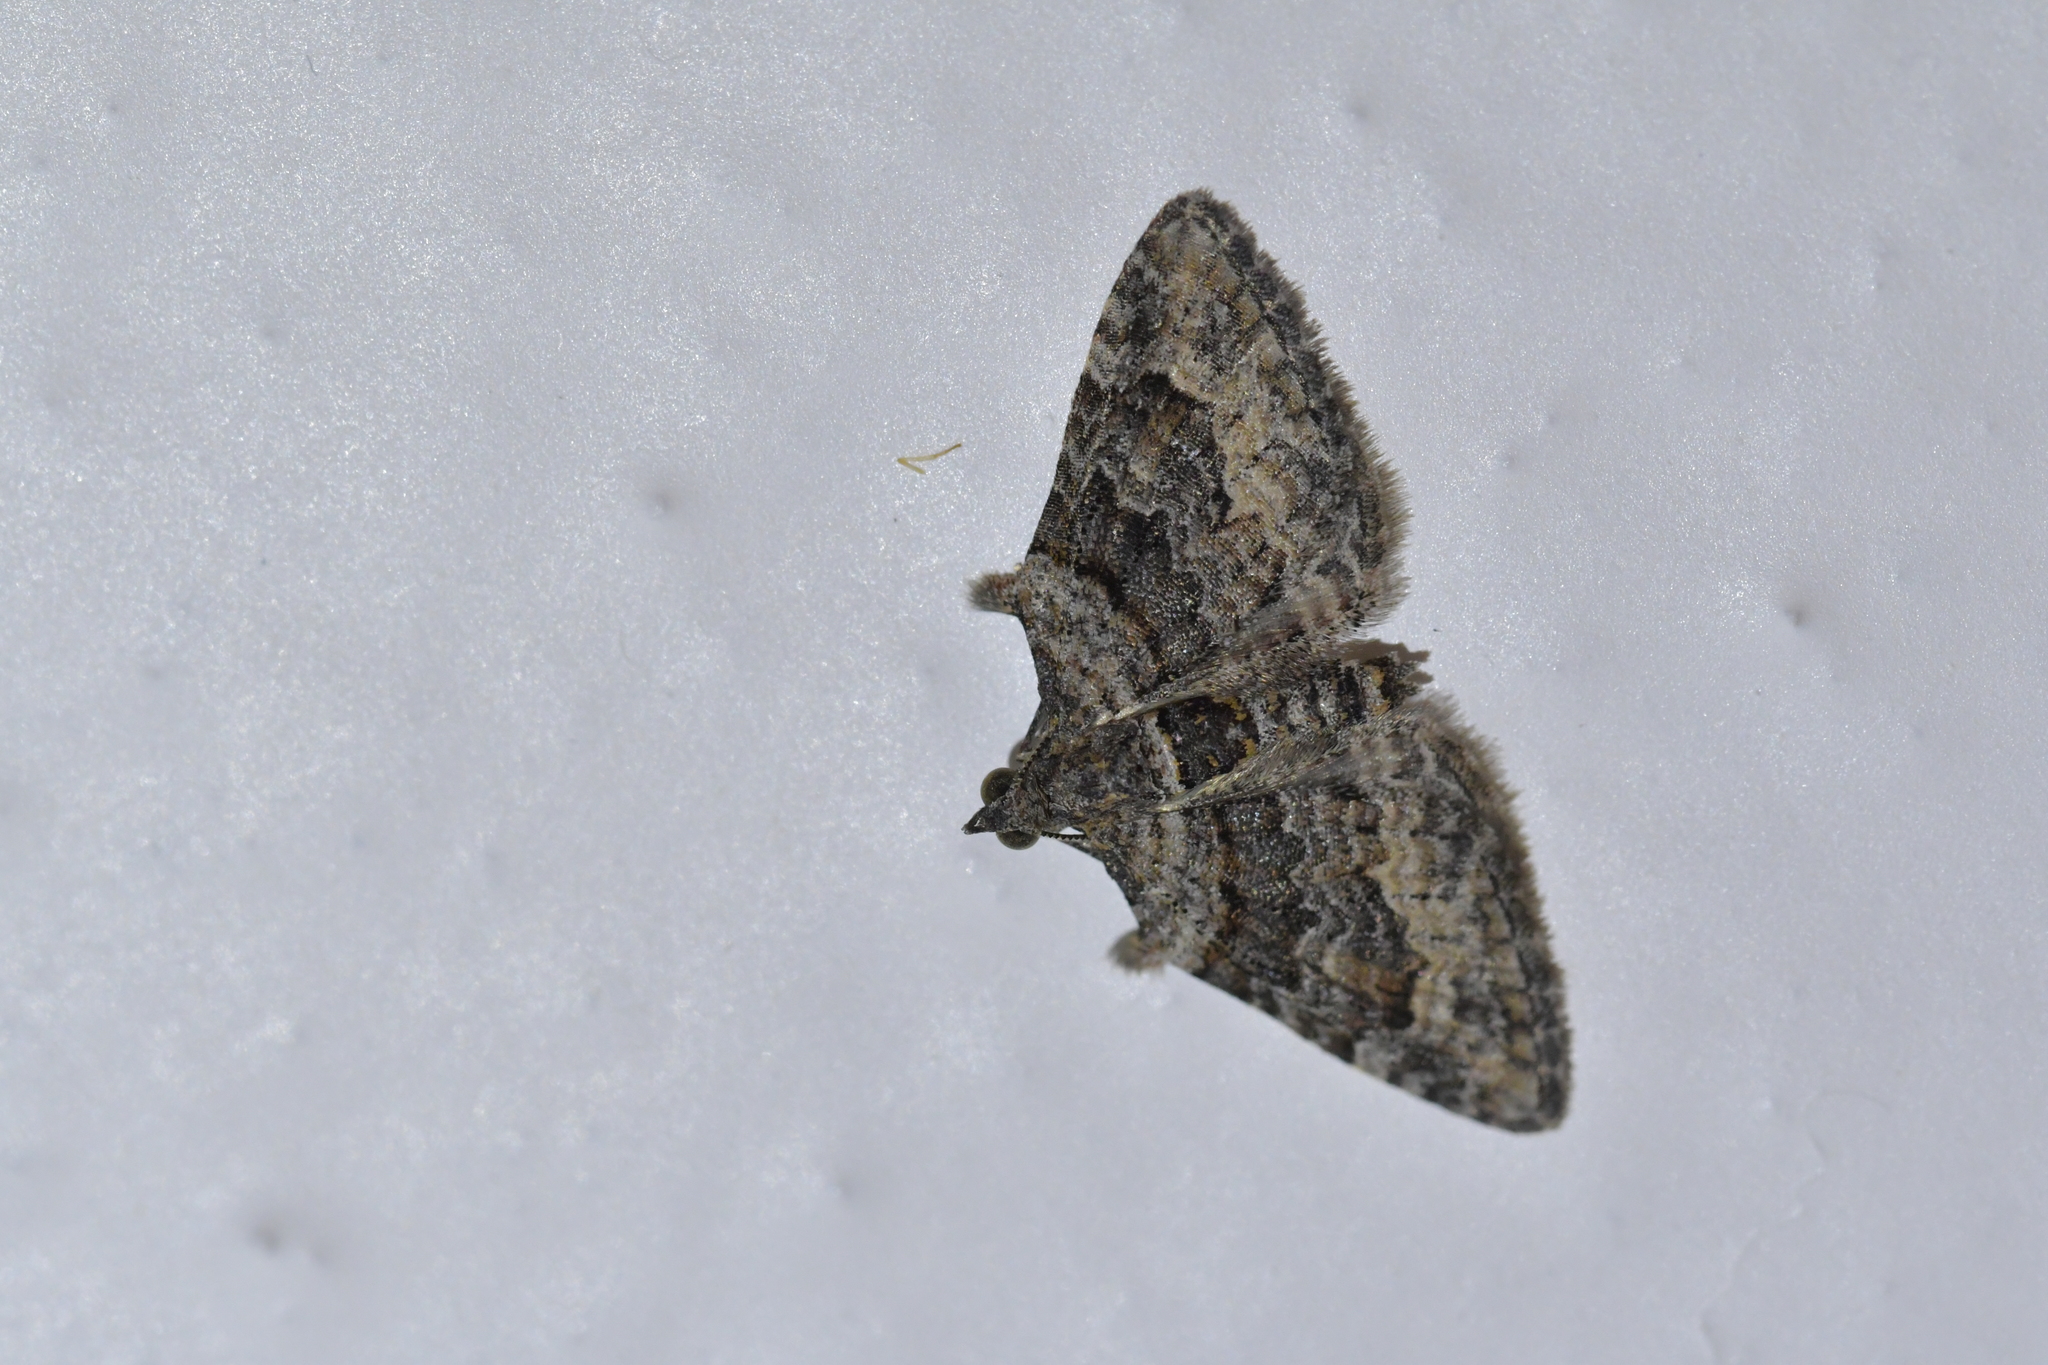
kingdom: Animalia
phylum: Arthropoda
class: Insecta
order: Lepidoptera
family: Geometridae
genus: Phrissogonus
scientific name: Phrissogonus laticostata
